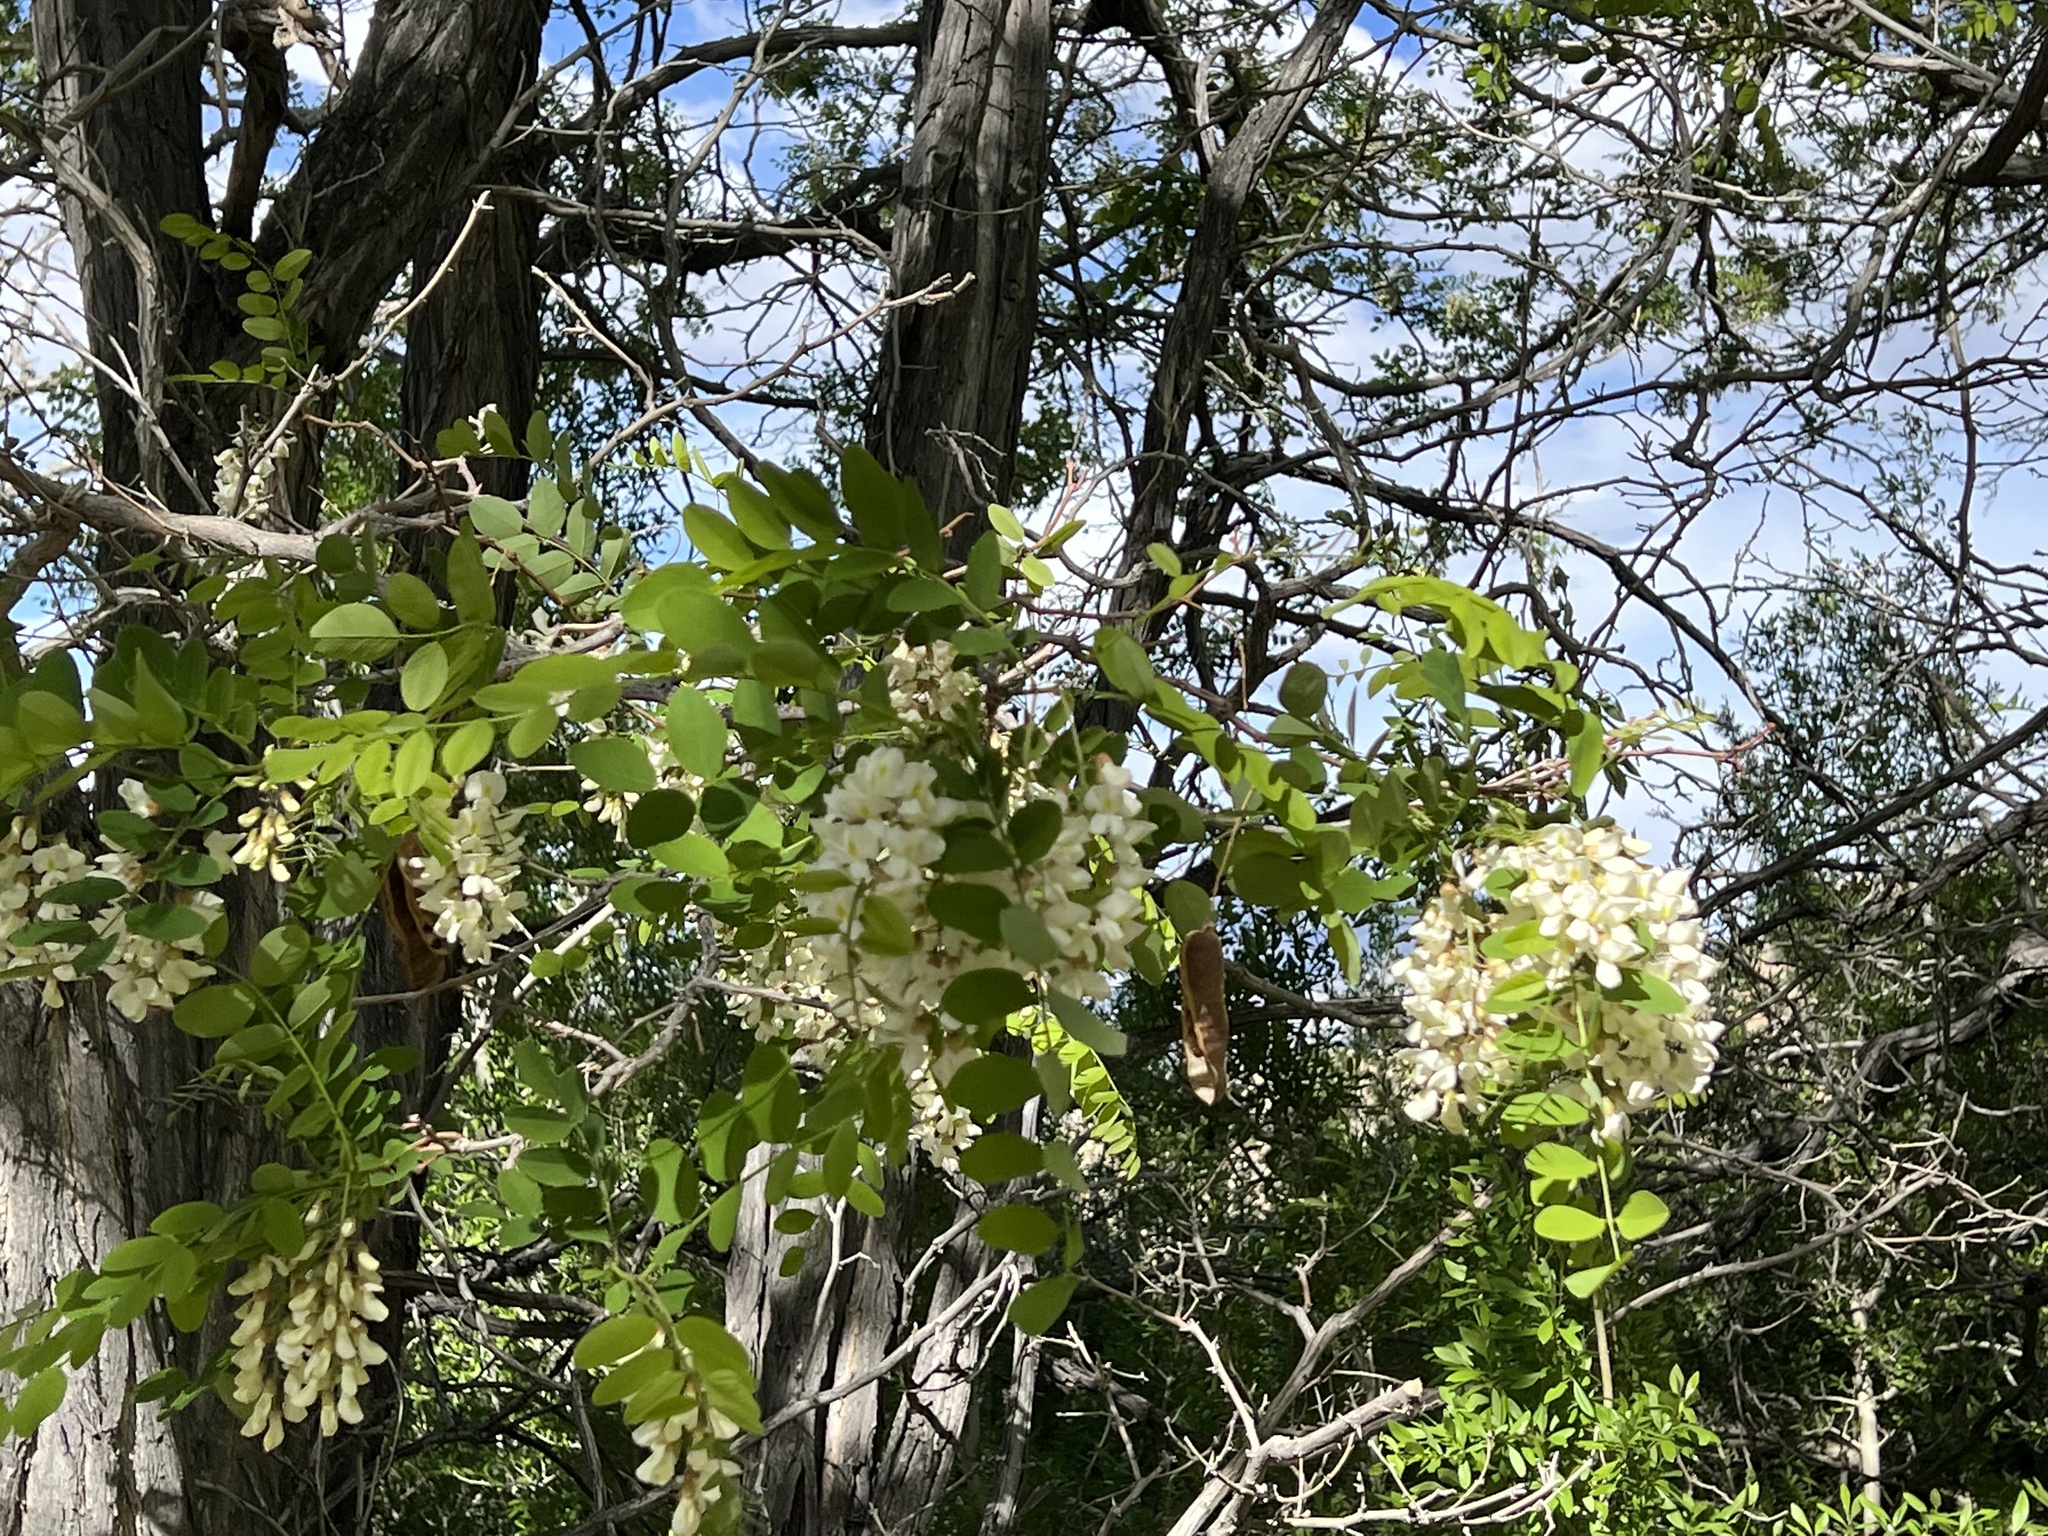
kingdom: Plantae
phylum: Tracheophyta
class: Magnoliopsida
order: Fabales
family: Fabaceae
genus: Robinia
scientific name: Robinia pseudoacacia
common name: Black locust
